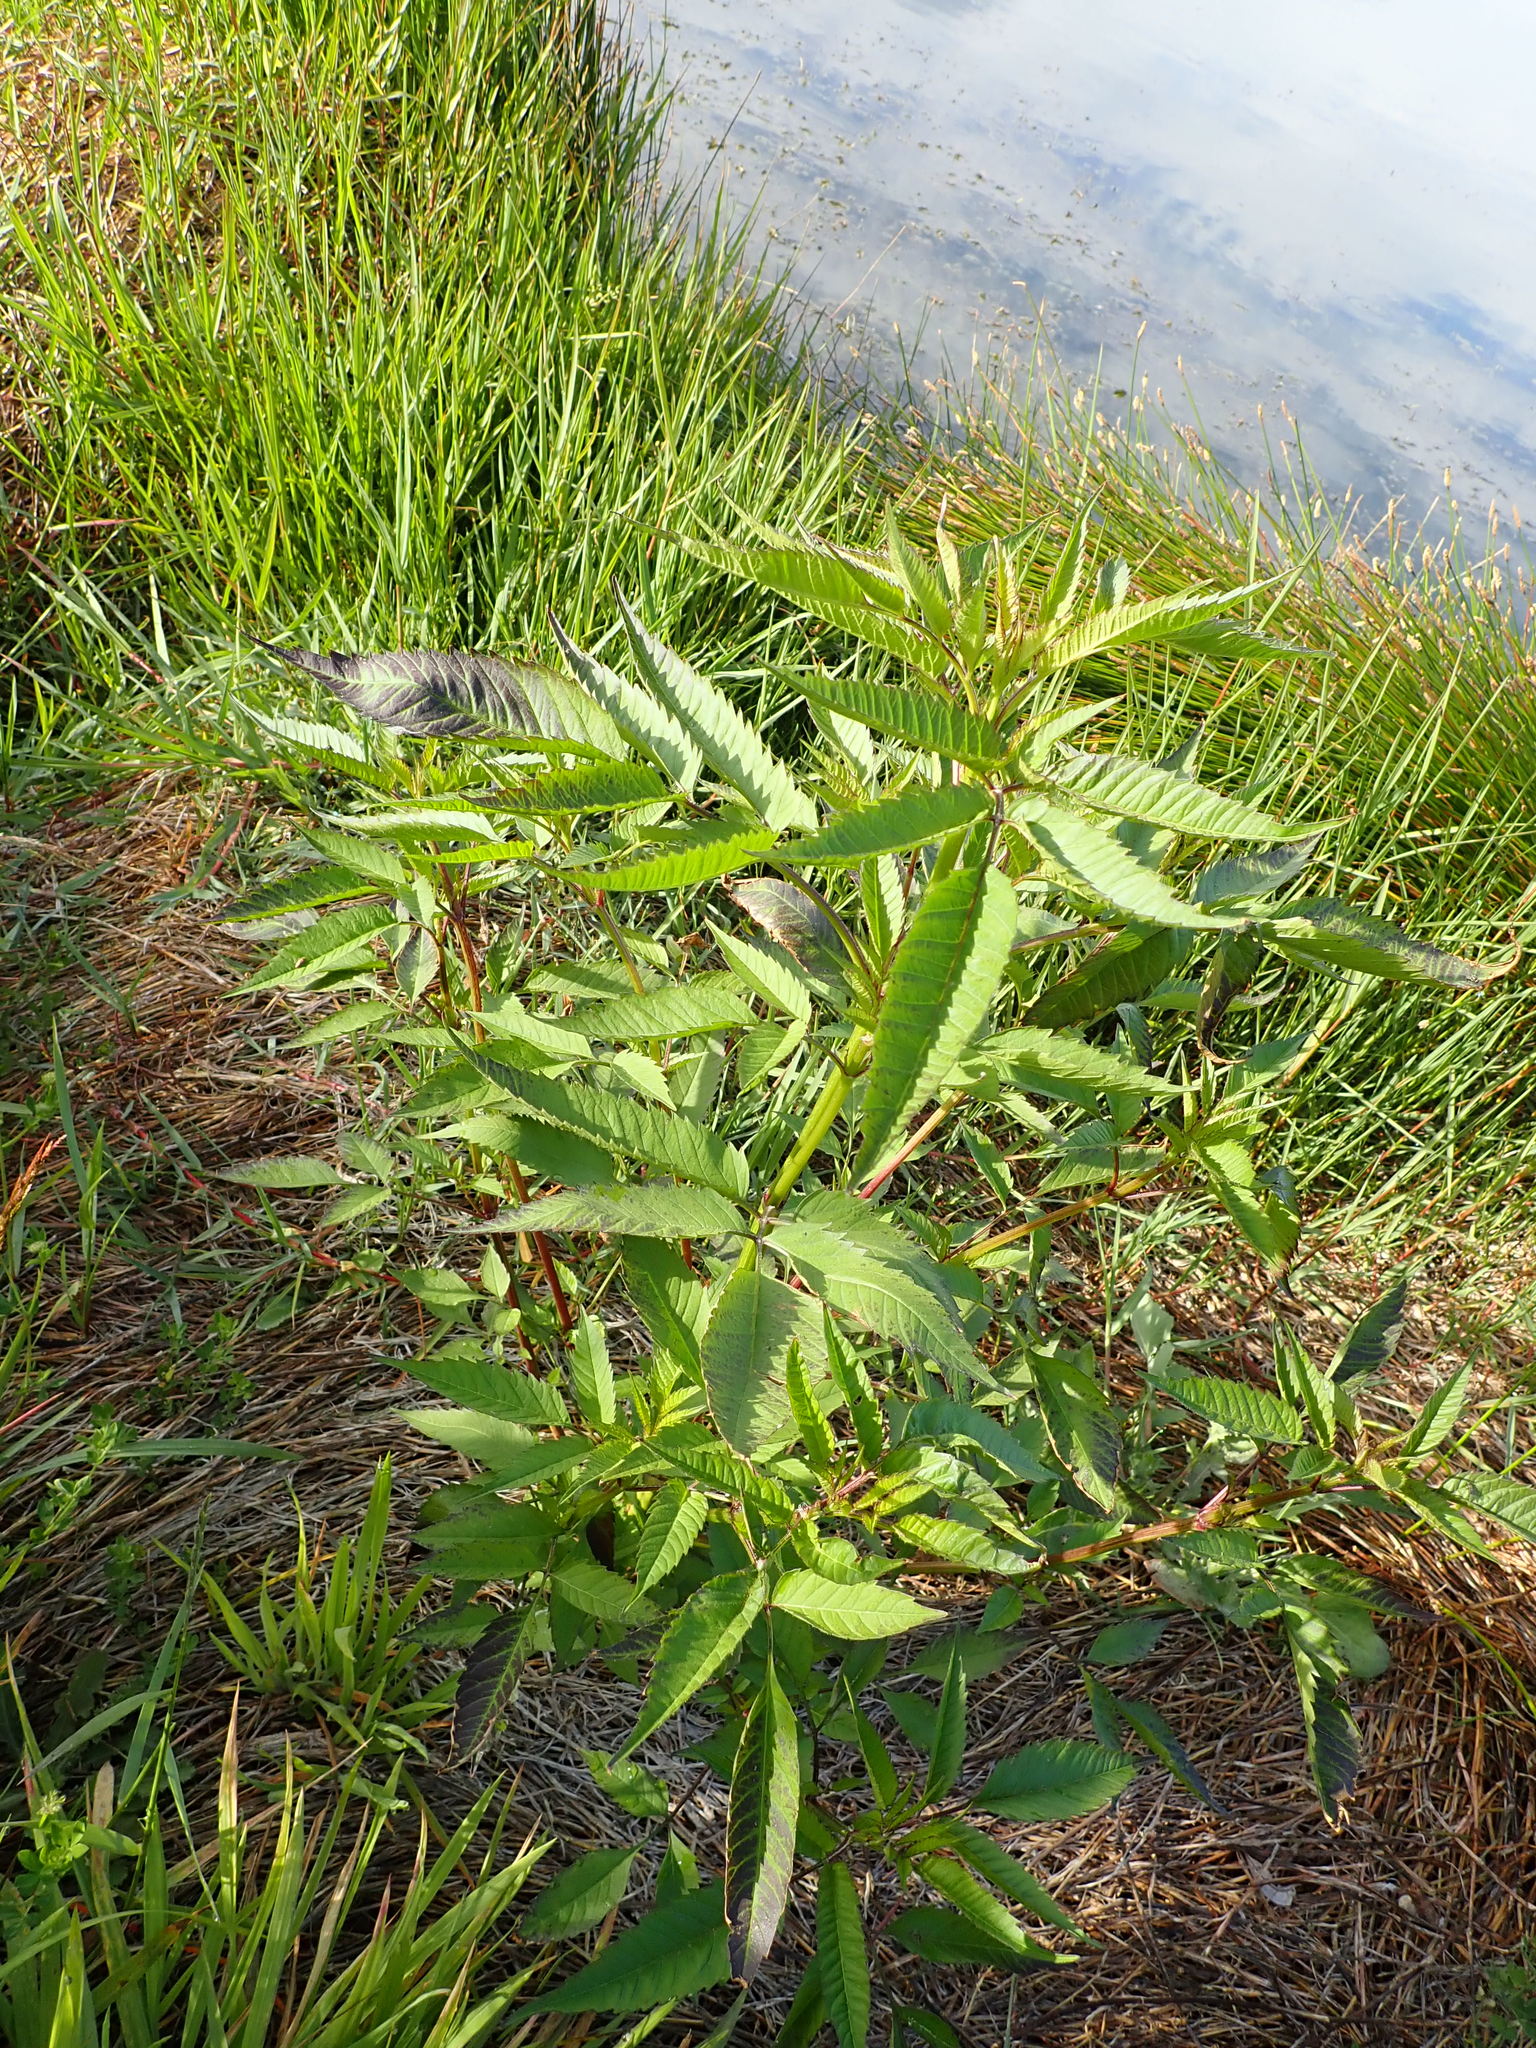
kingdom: Plantae
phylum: Tracheophyta
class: Magnoliopsida
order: Asterales
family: Asteraceae
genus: Bidens
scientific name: Bidens frondosa
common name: Beggarticks
